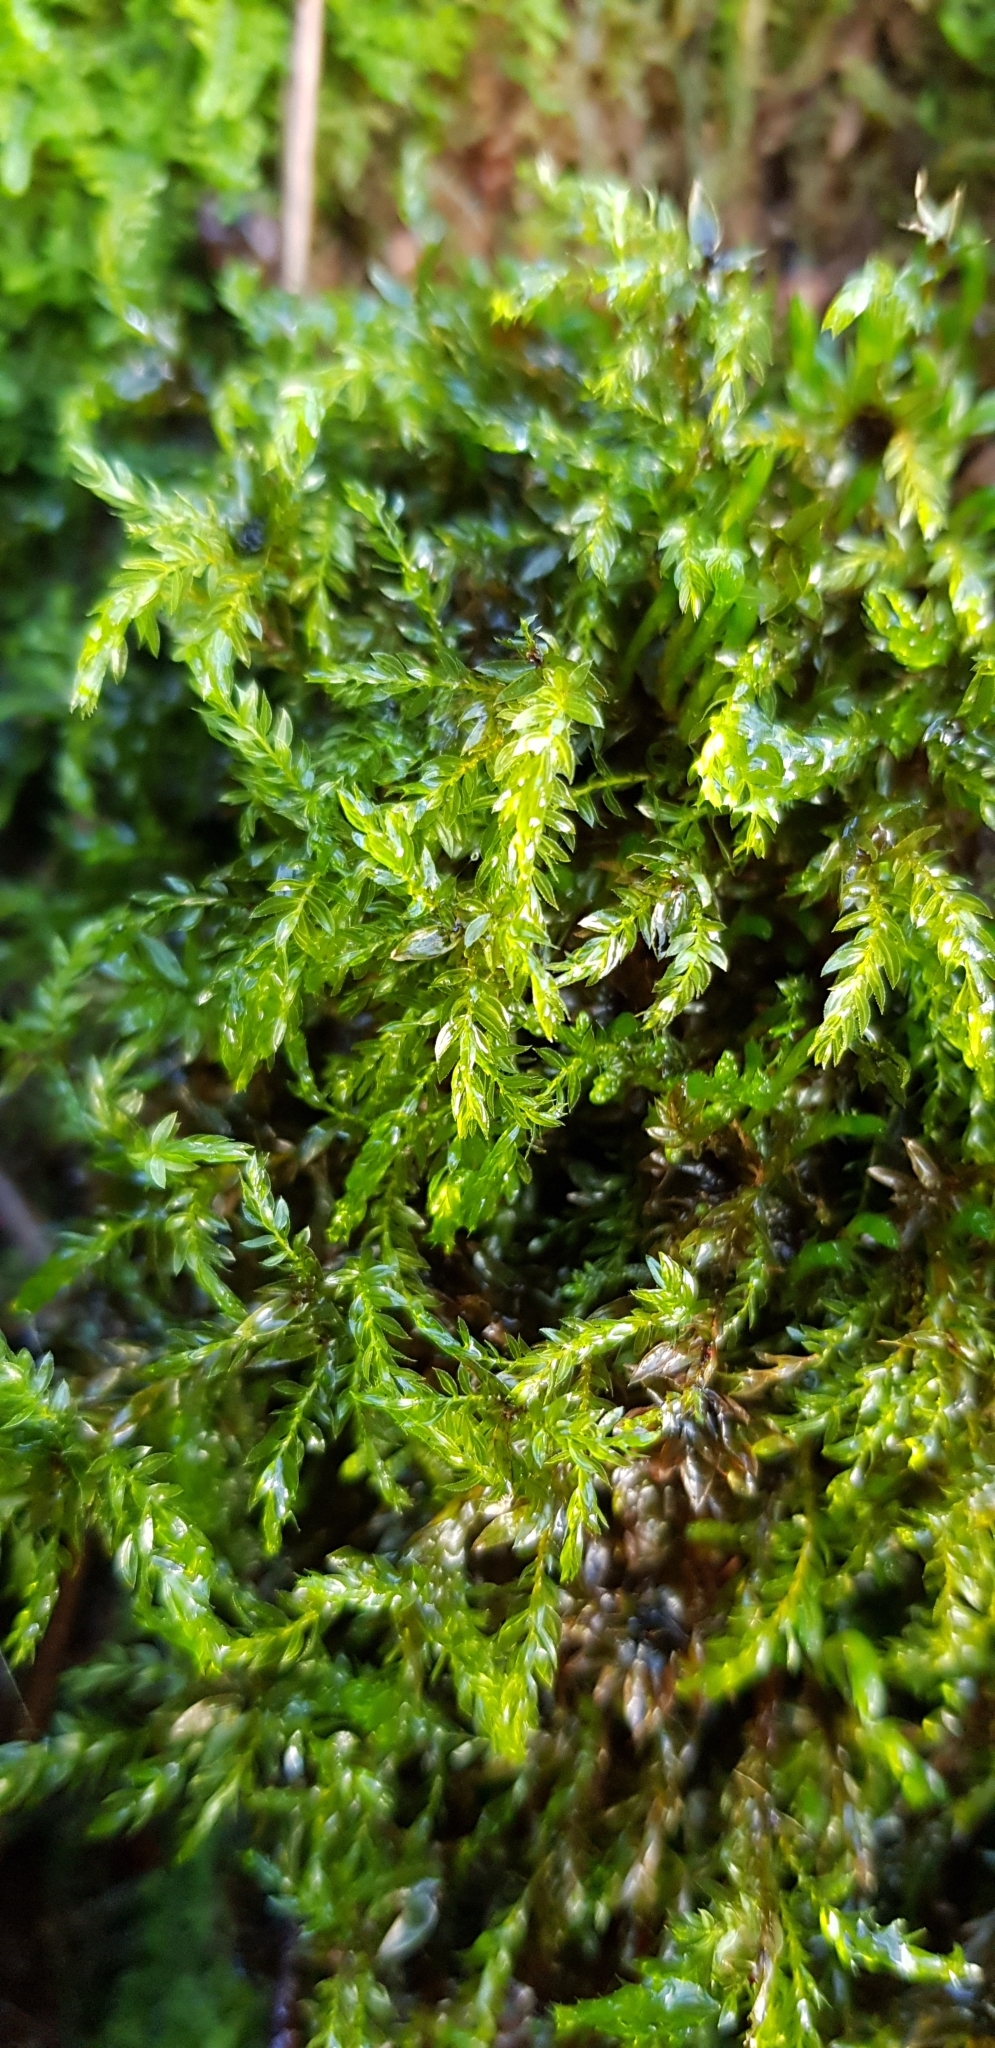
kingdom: Plantae
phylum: Bryophyta
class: Bryopsida
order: Bryales
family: Mniaceae
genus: Mnium
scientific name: Mnium hornum
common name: Swan's-neck leafy moss
